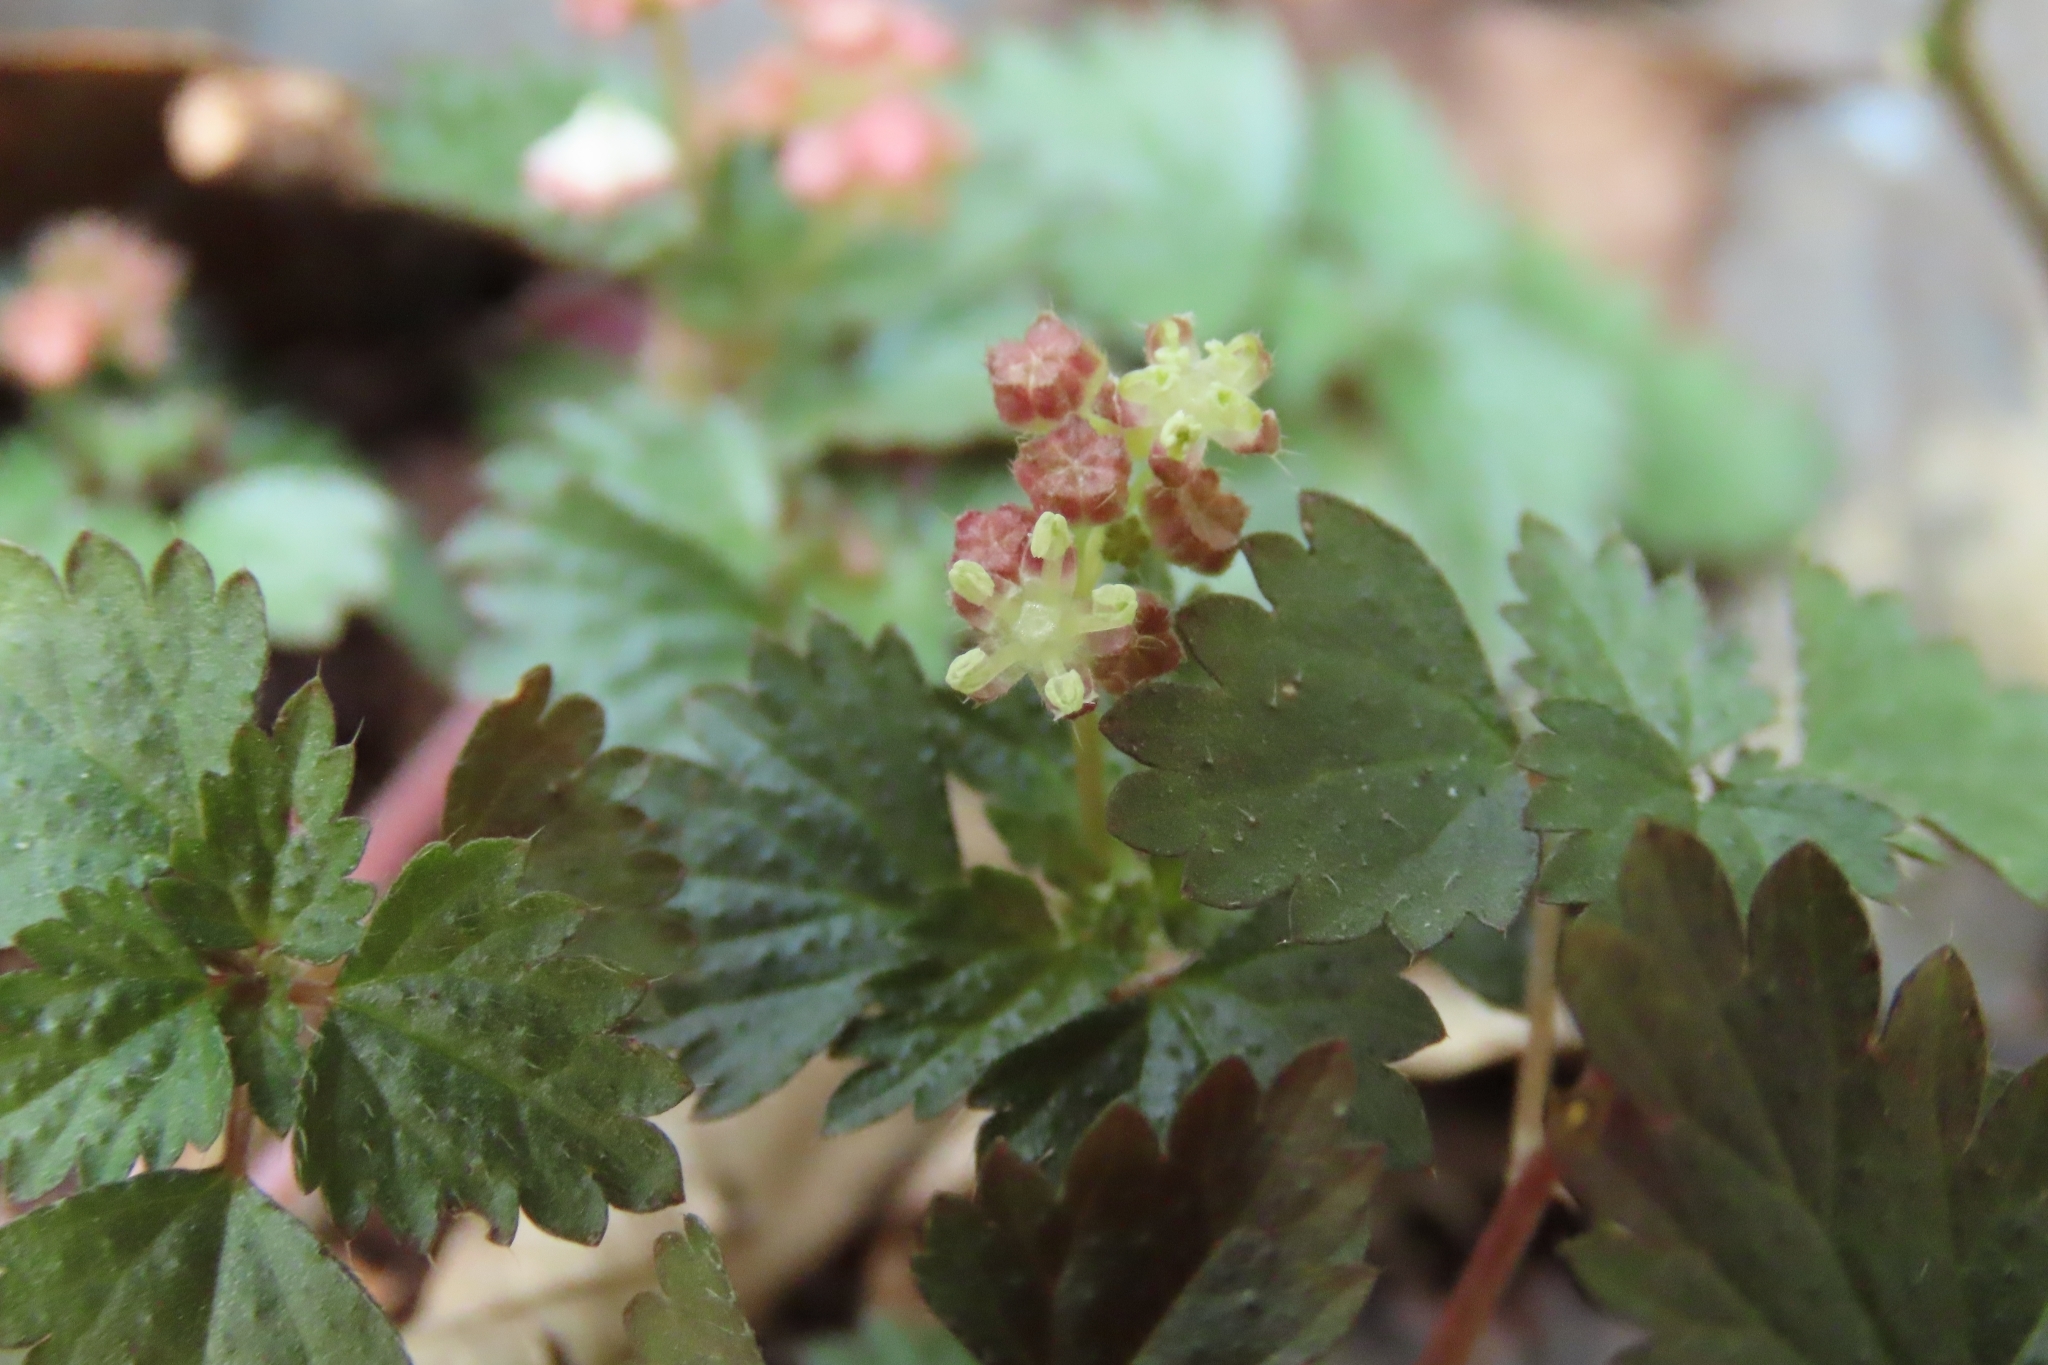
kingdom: Plantae
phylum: Tracheophyta
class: Magnoliopsida
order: Rosales
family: Urticaceae
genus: Nanocnide
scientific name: Nanocnide japonica
